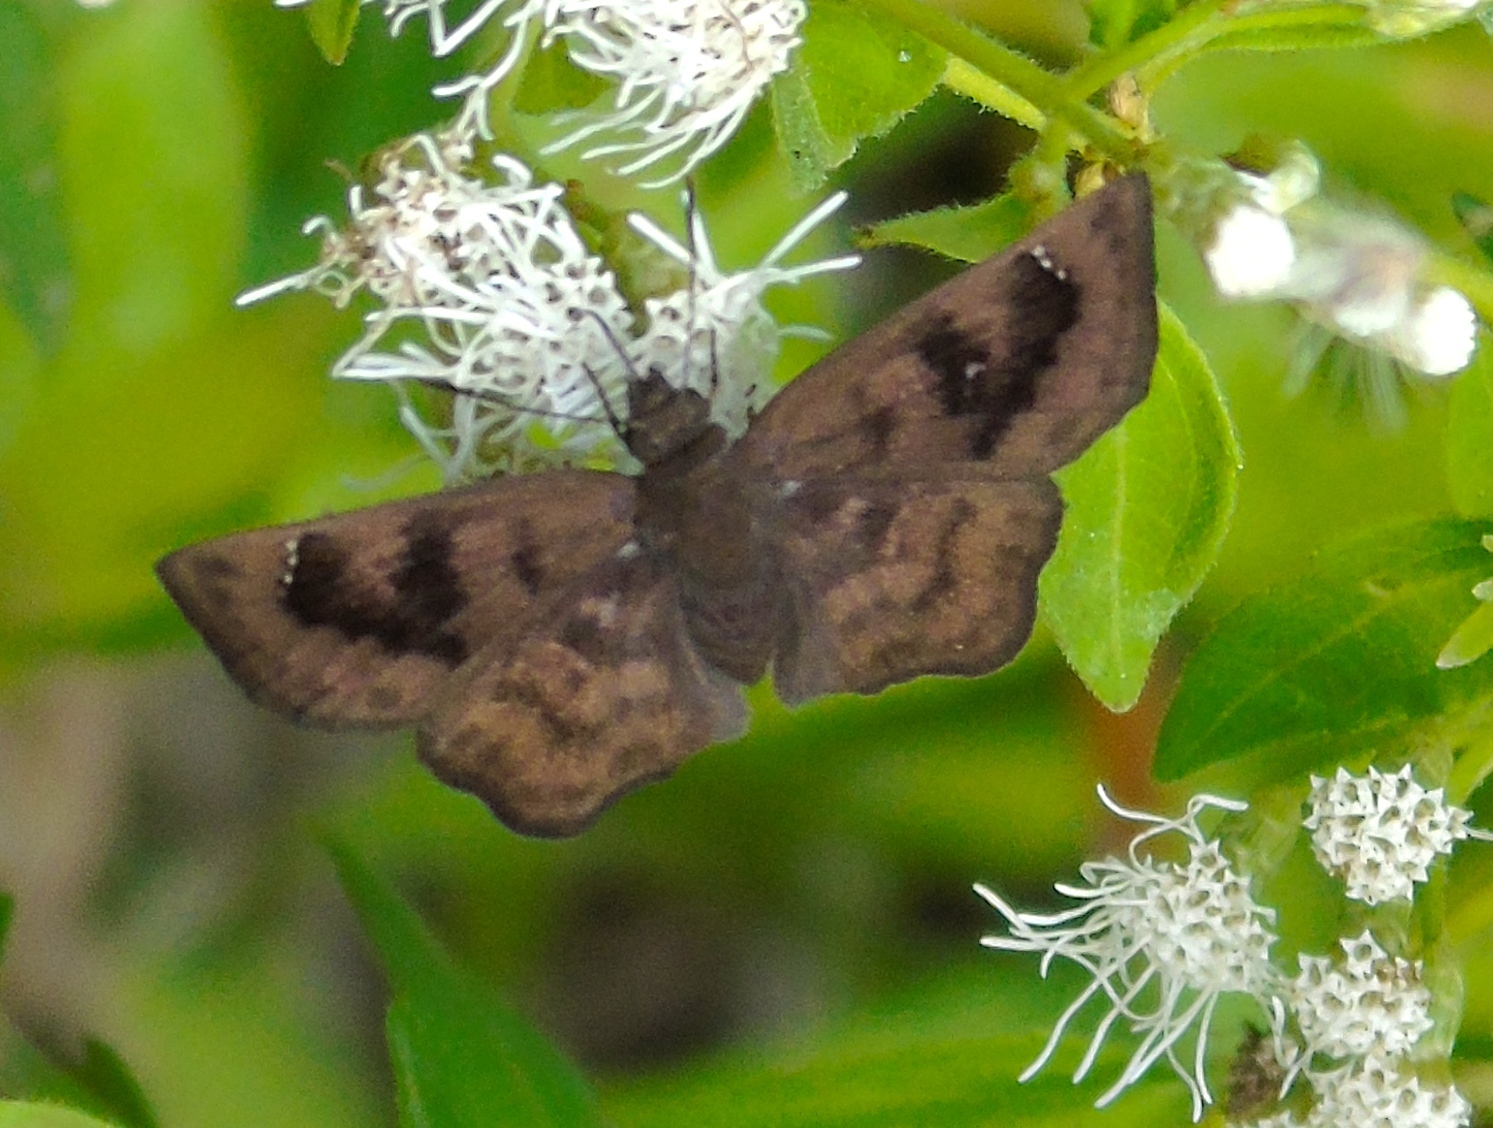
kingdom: Animalia
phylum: Arthropoda
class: Insecta
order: Lepidoptera
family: Hesperiidae
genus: Pyrginae
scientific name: Pyrginae
